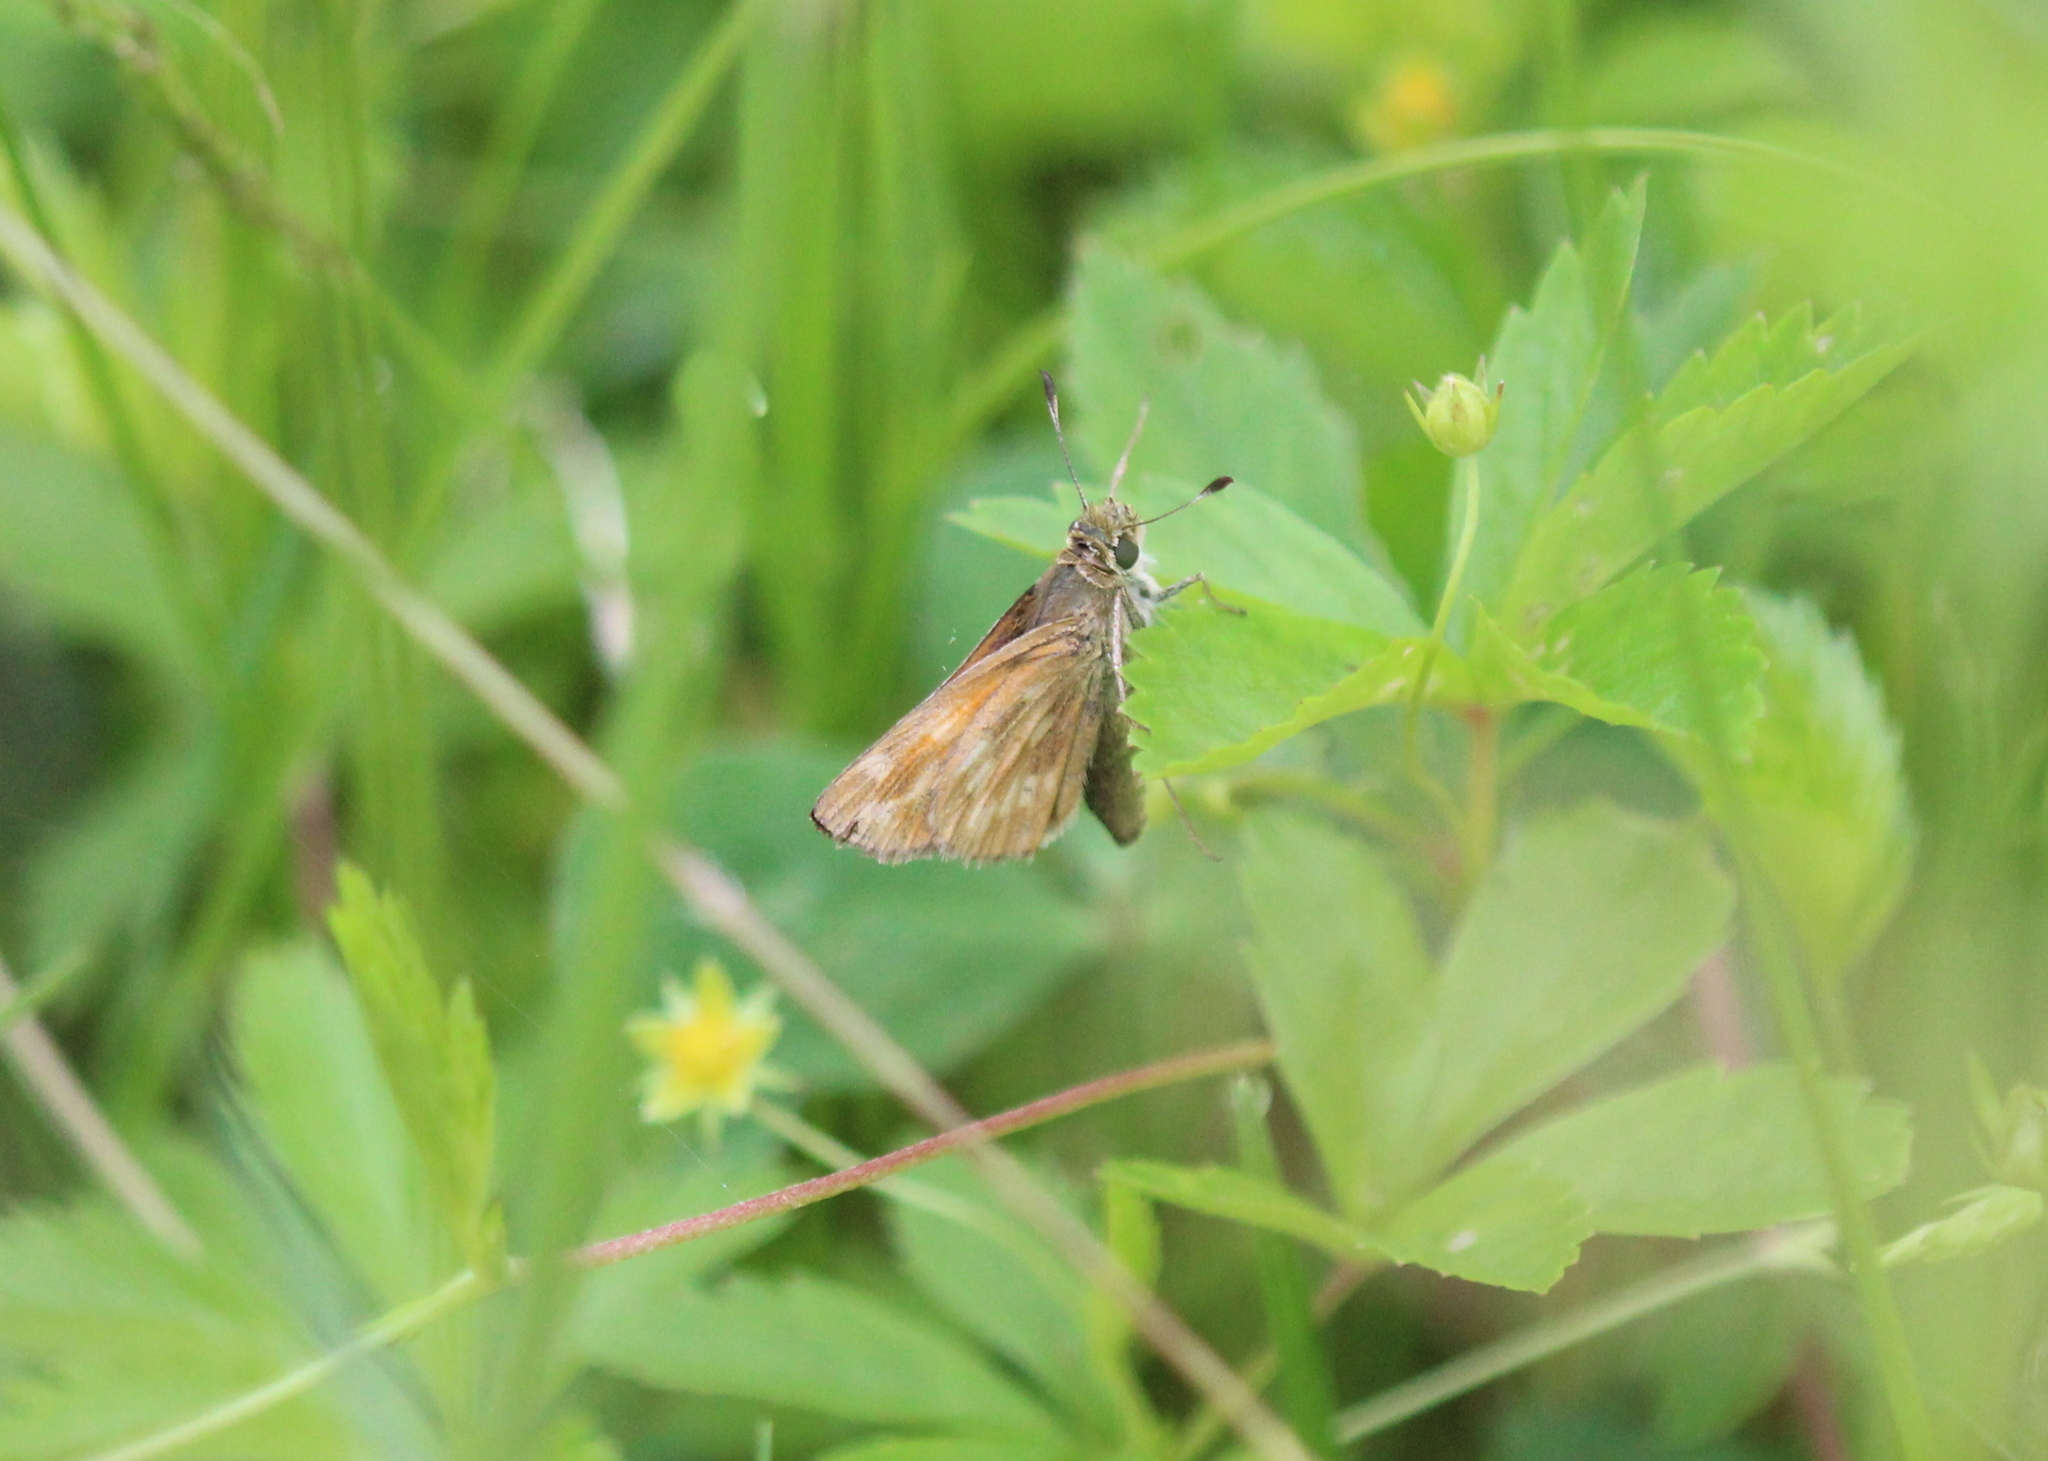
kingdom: Animalia
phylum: Arthropoda
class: Insecta
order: Lepidoptera
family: Hesperiidae
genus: Hesperia
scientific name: Hesperia sassacus
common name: Indian skipper
